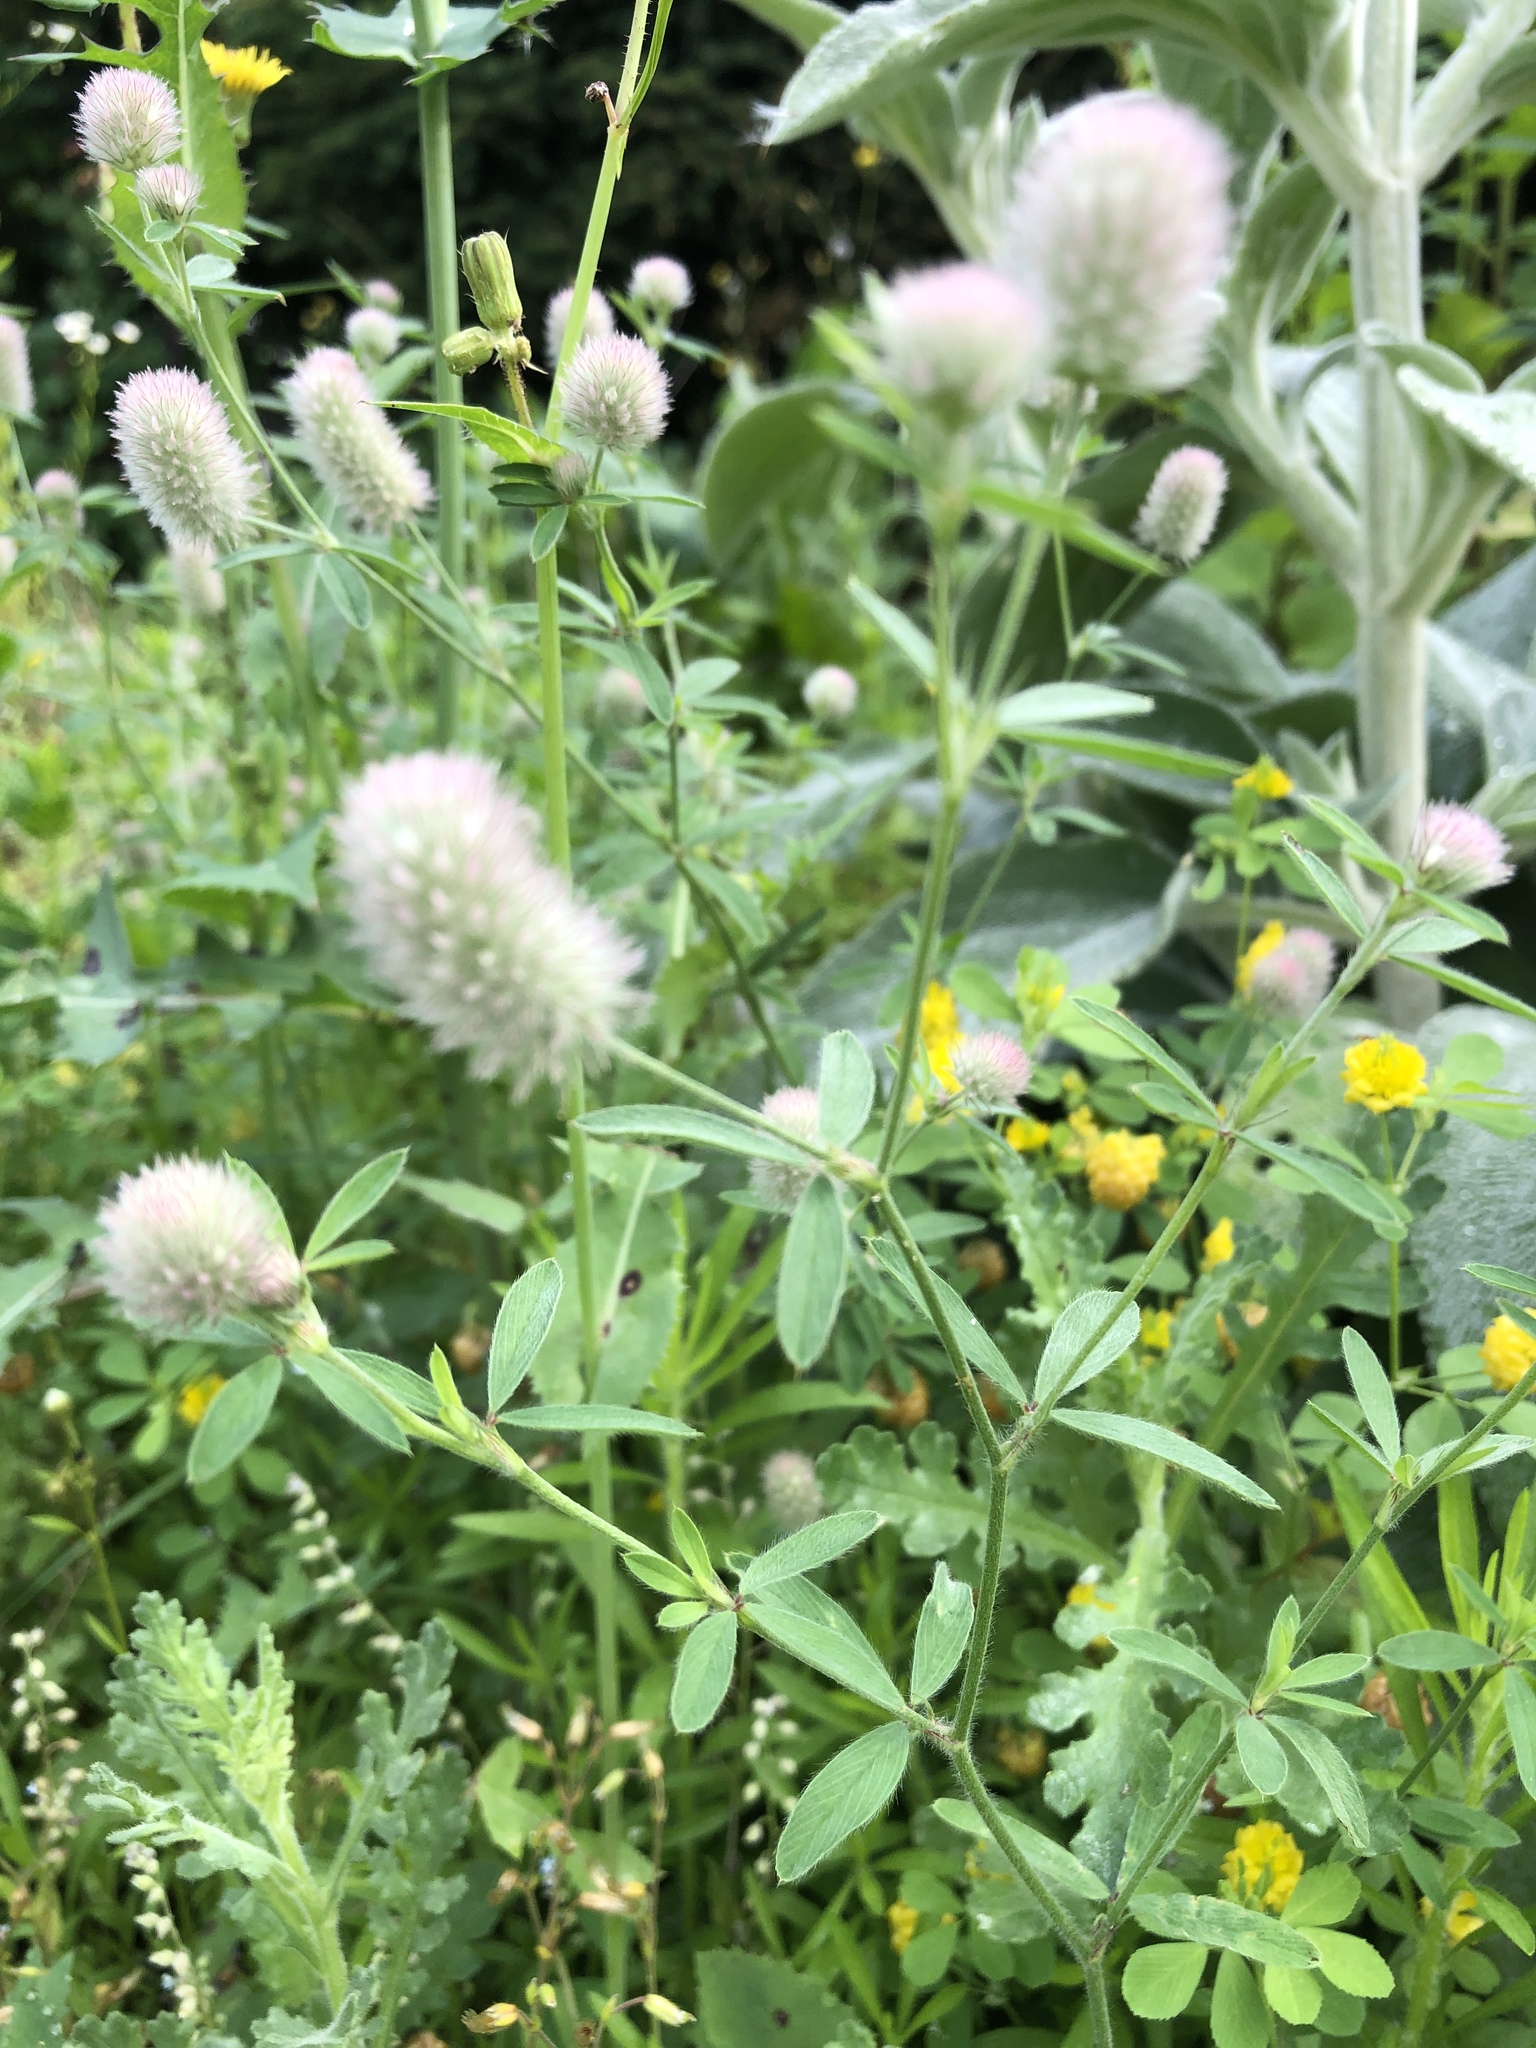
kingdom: Plantae
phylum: Tracheophyta
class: Magnoliopsida
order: Fabales
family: Fabaceae
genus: Trifolium
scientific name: Trifolium arvense
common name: Hare's-foot clover
